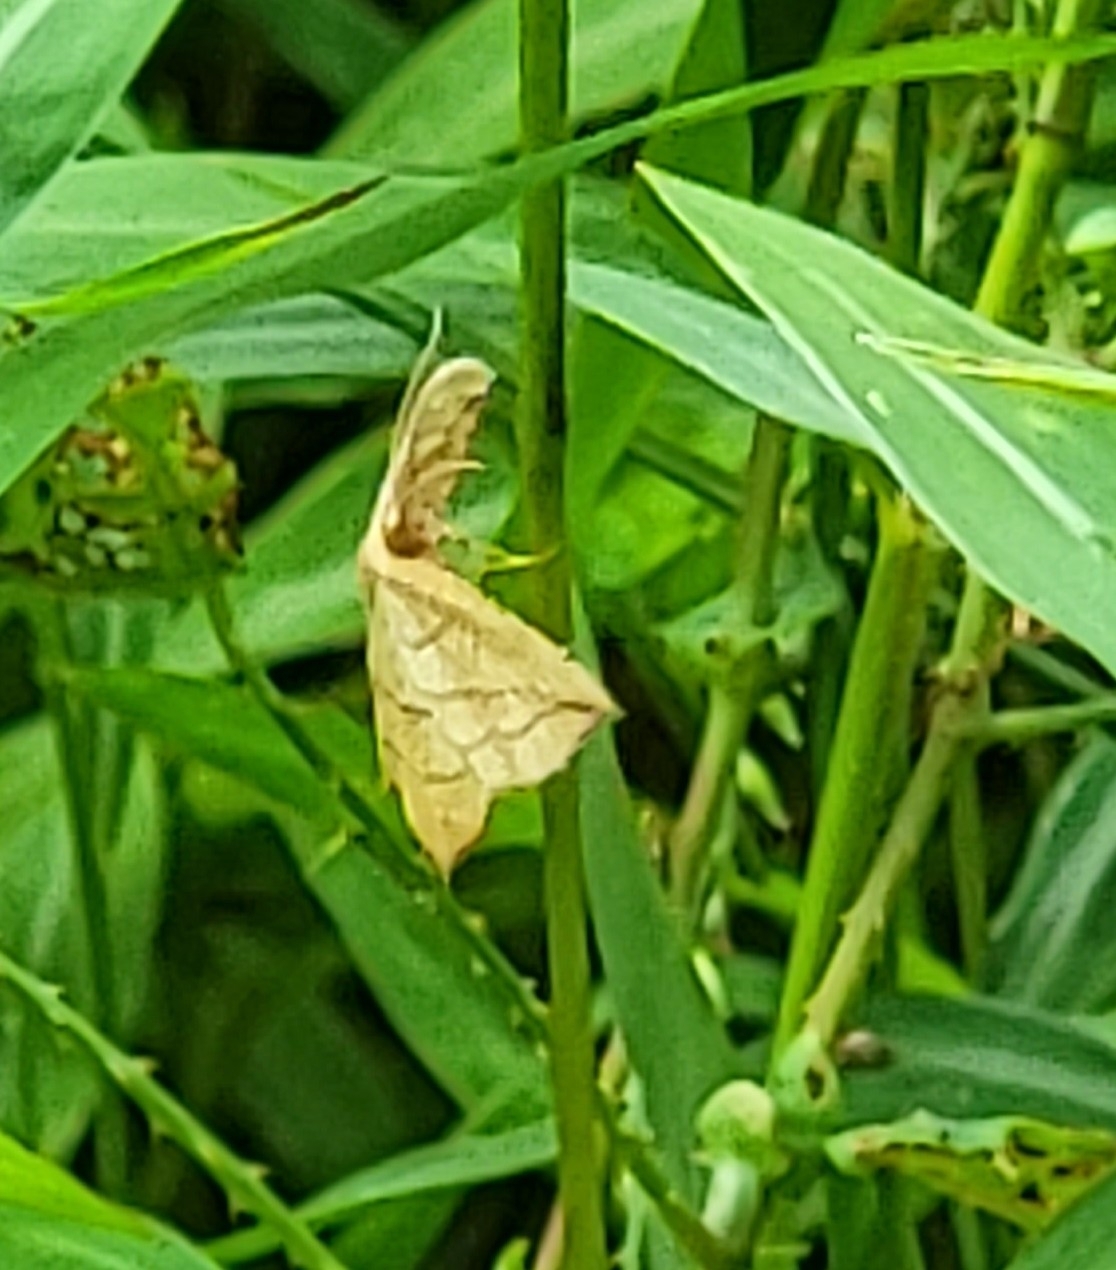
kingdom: Animalia
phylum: Arthropoda
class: Insecta
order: Lepidoptera
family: Geometridae
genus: Timandra
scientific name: Timandra amaturaria
